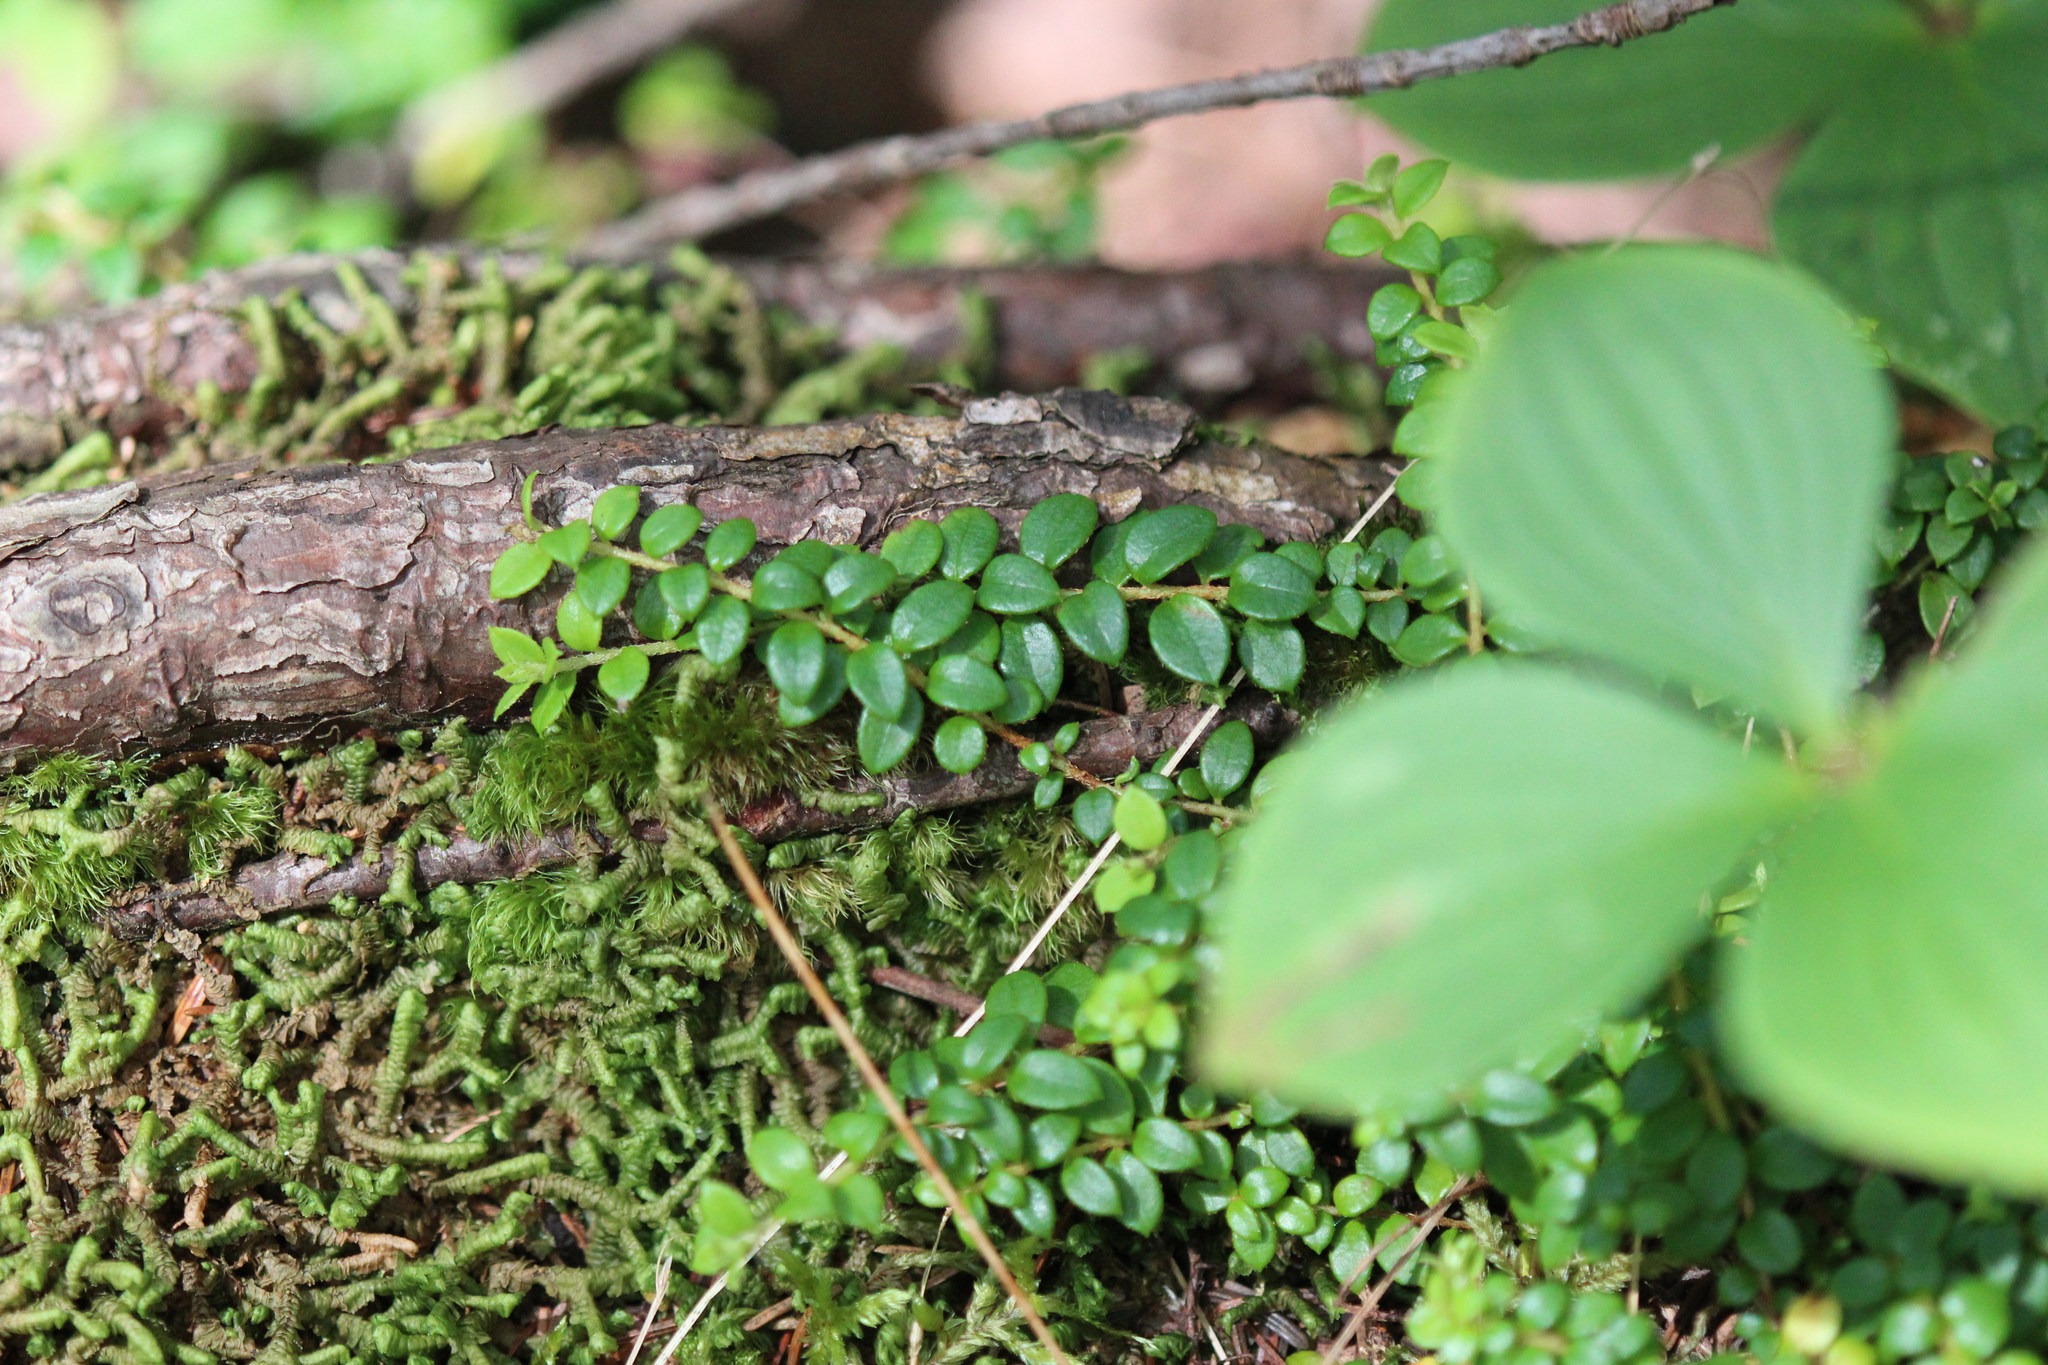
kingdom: Plantae
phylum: Tracheophyta
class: Magnoliopsida
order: Ericales
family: Ericaceae
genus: Gaultheria
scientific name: Gaultheria hispidula
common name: Cancer wintergreen
